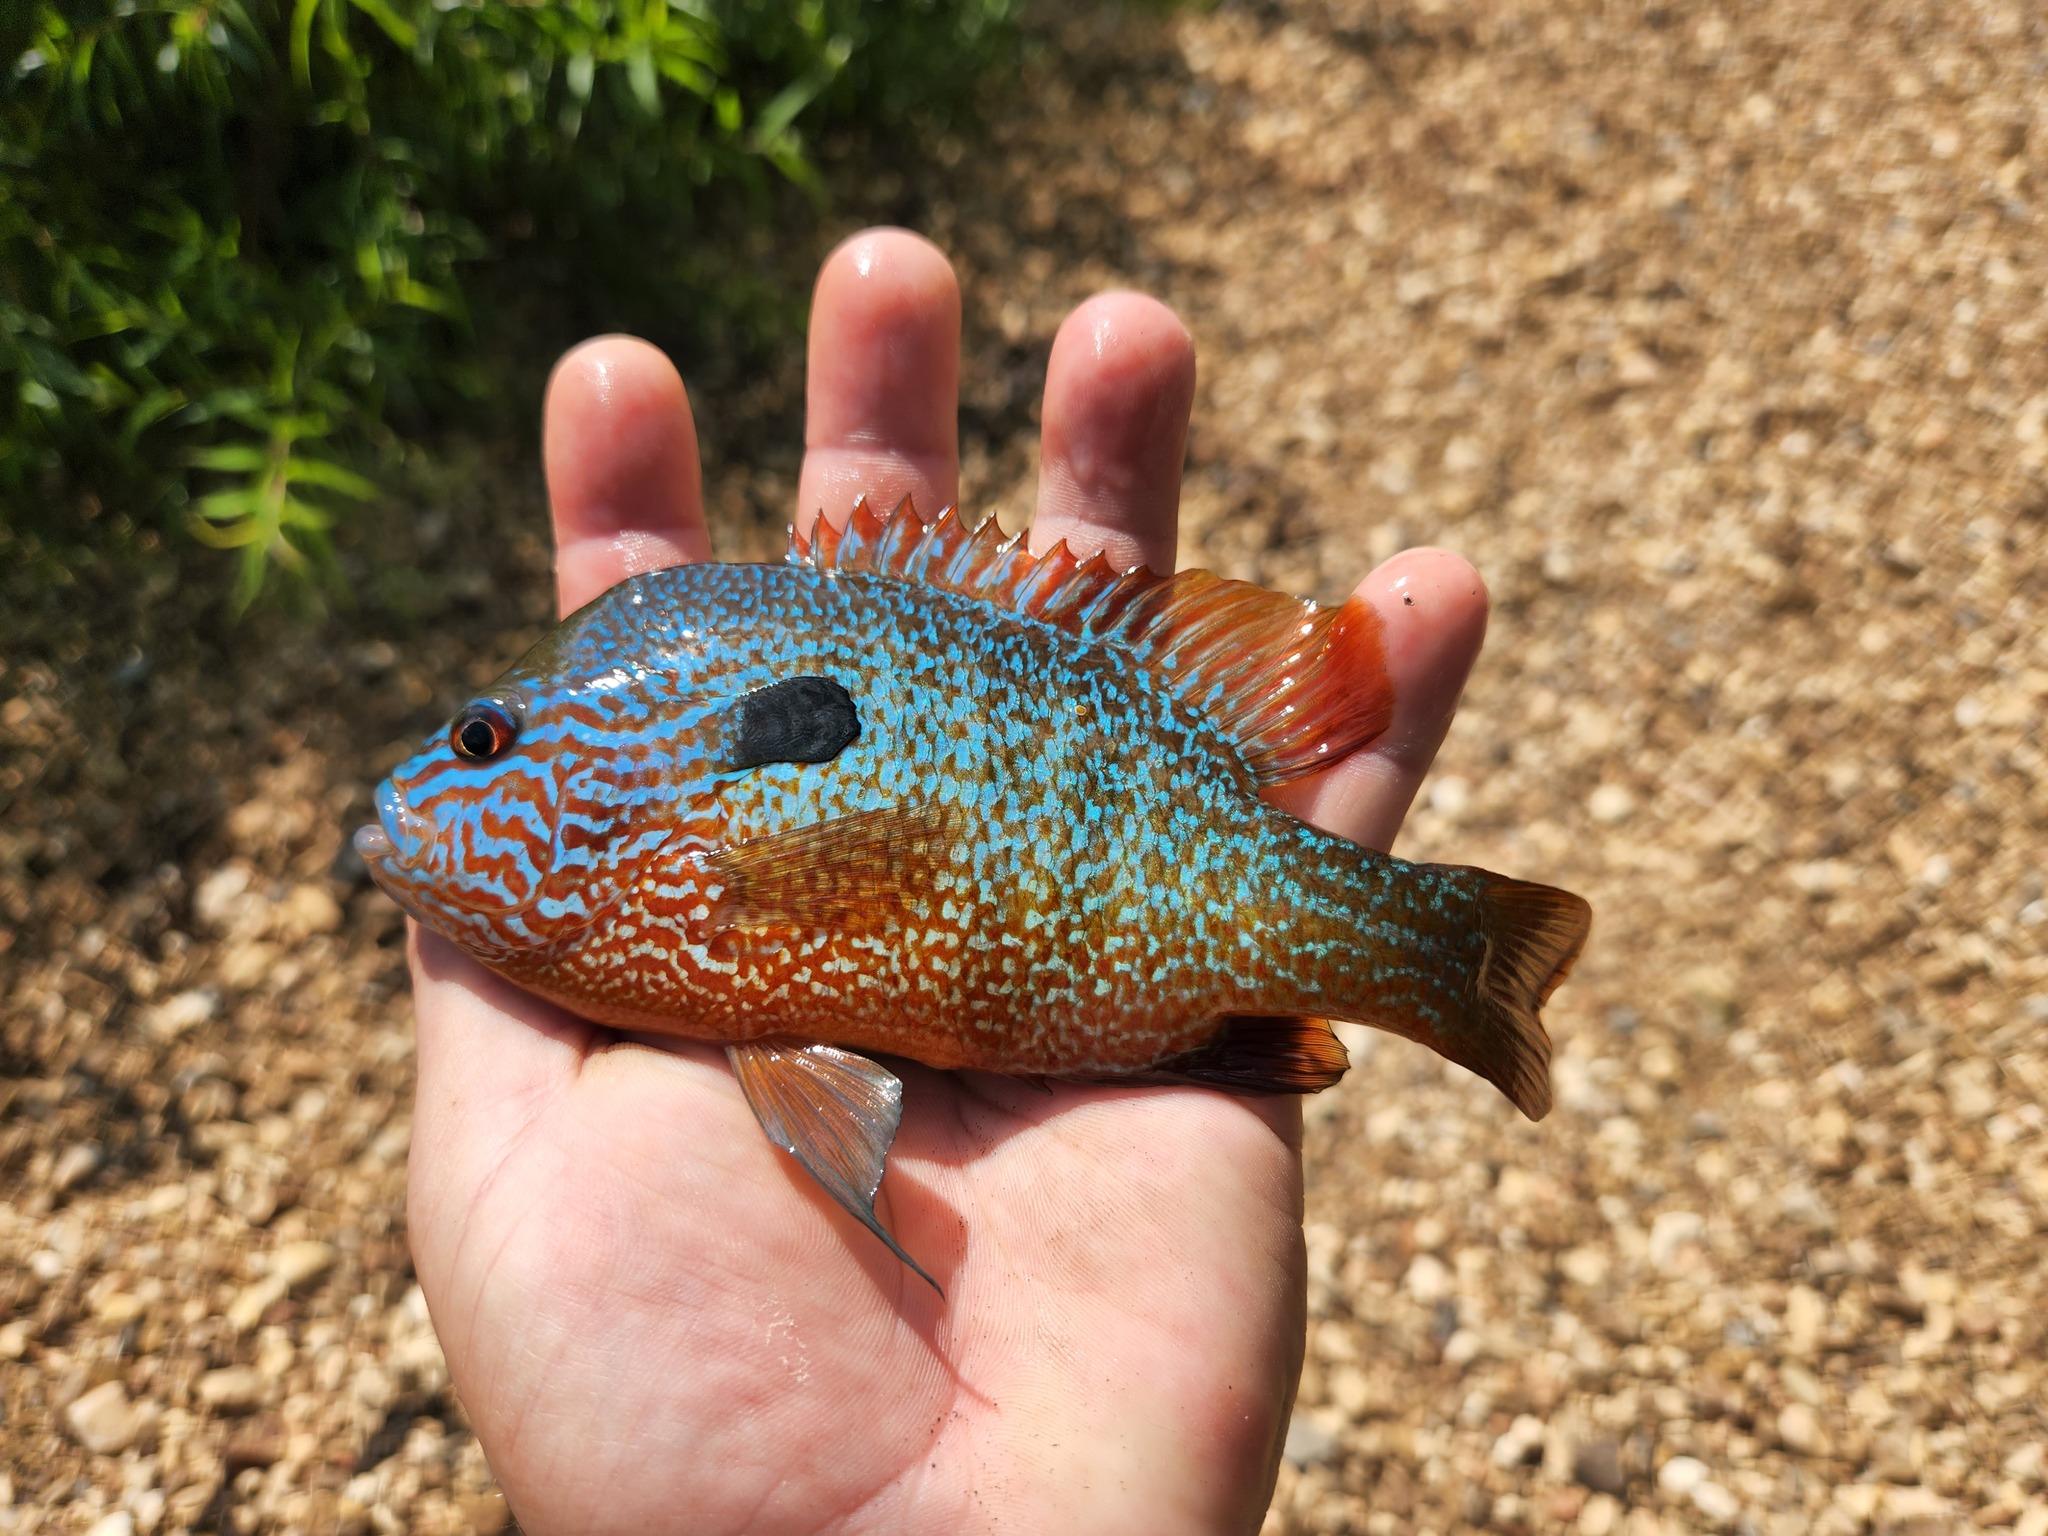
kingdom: Animalia
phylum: Chordata
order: Perciformes
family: Centrarchidae
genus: Lepomis
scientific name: Lepomis megalotis
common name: Longear sunfish
